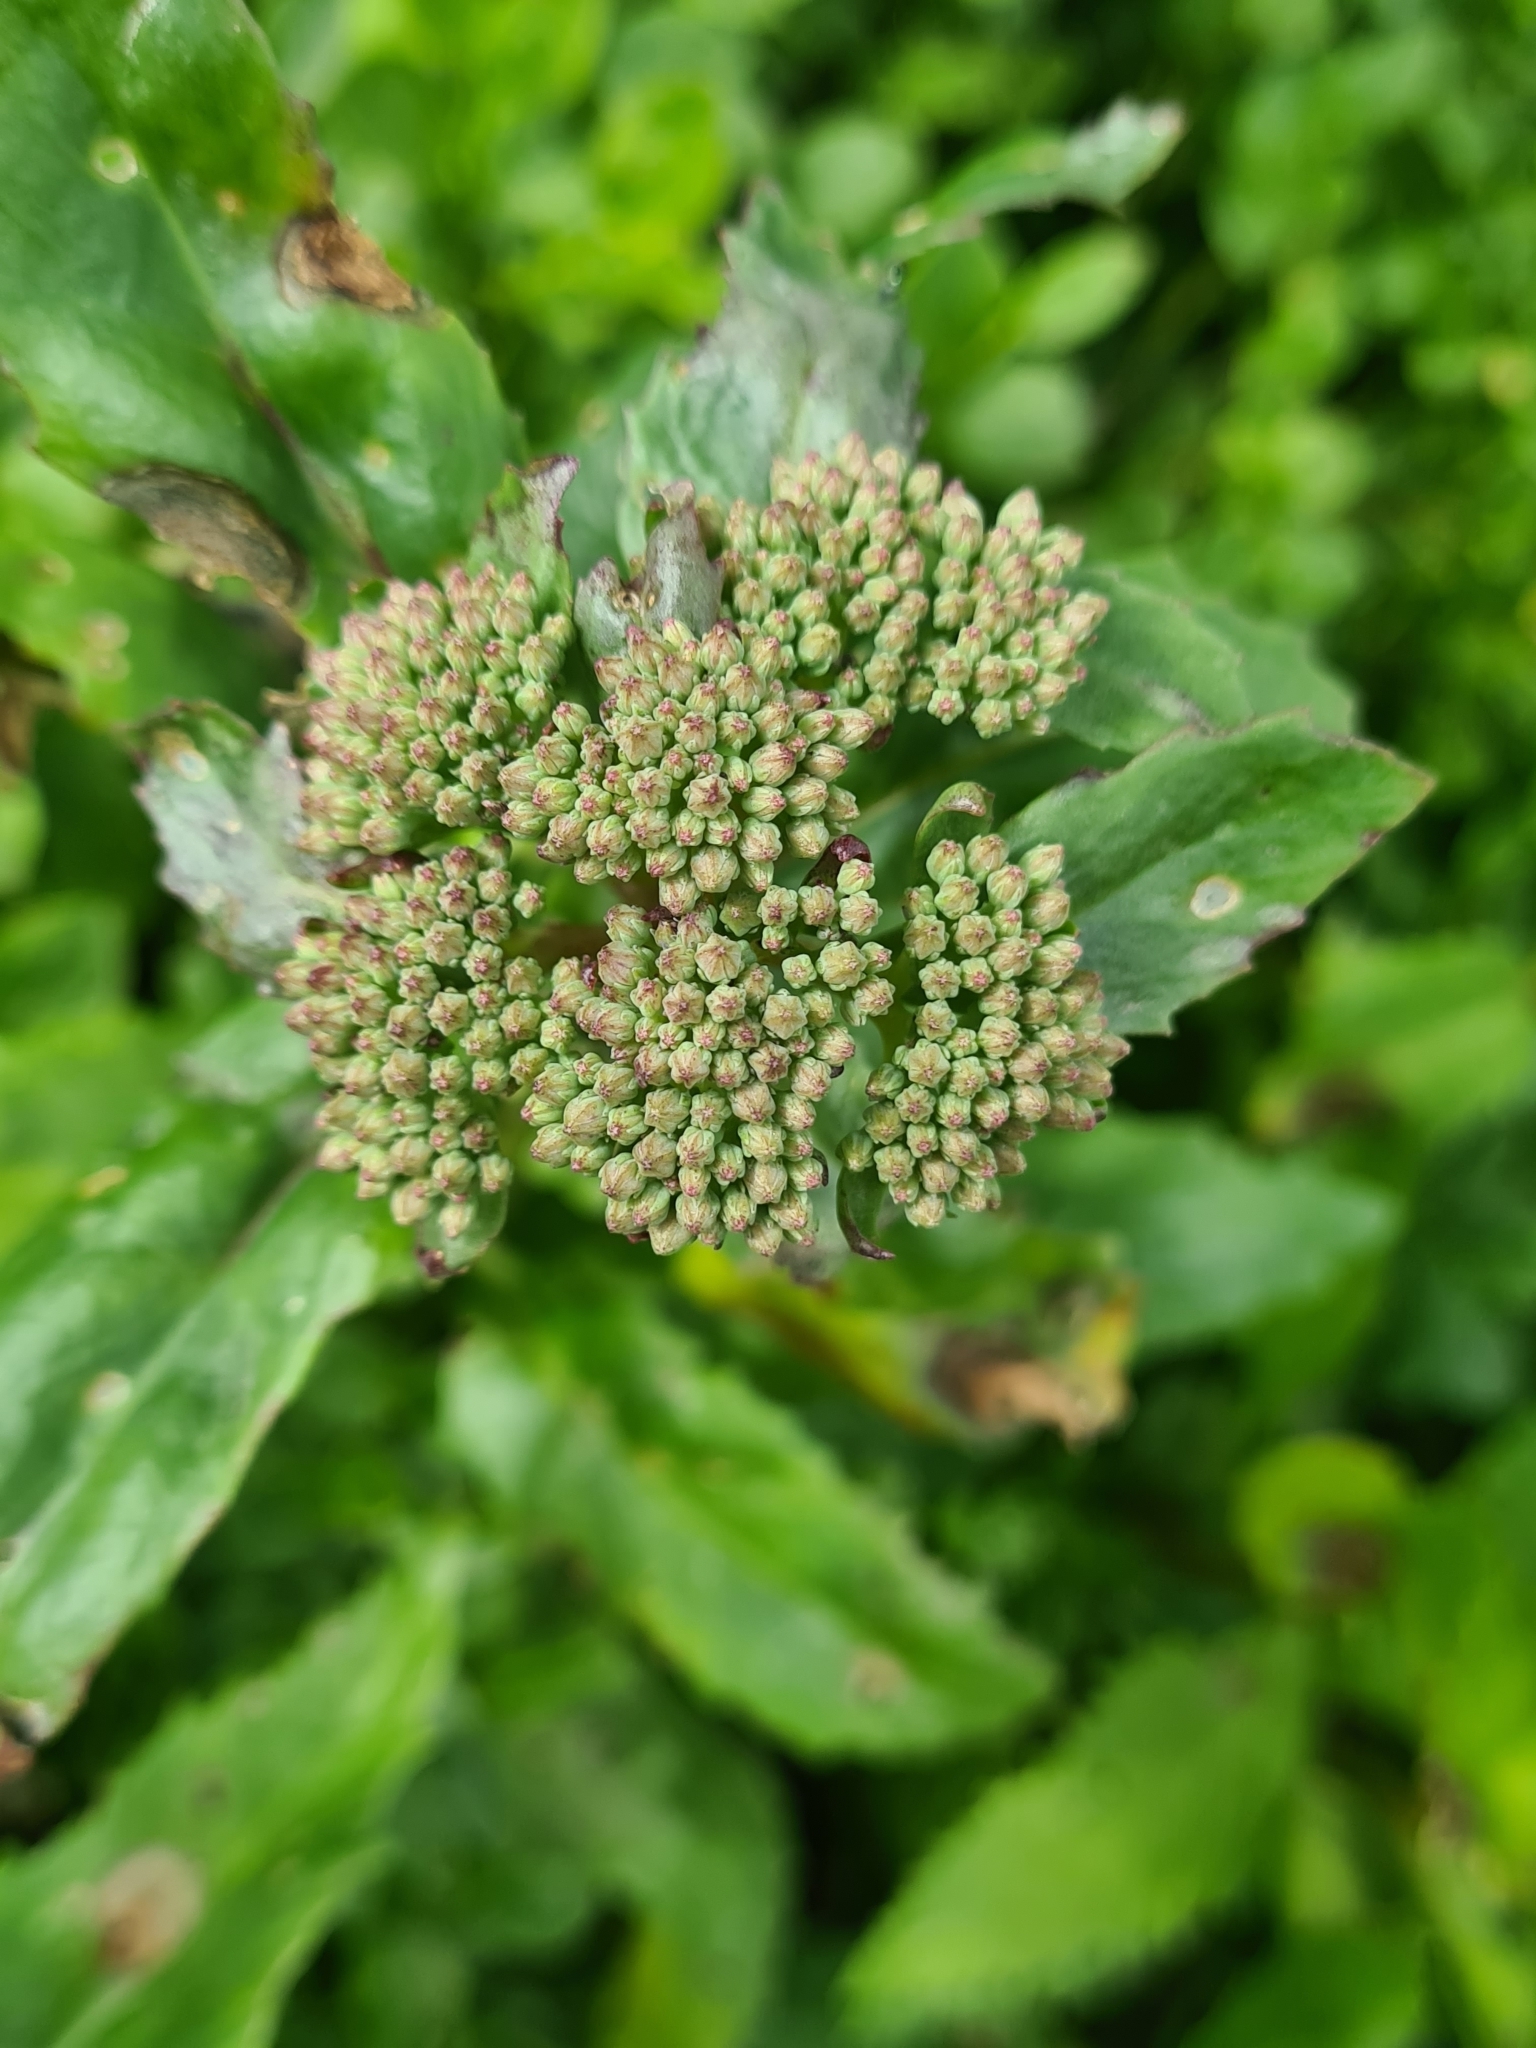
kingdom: Plantae
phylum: Tracheophyta
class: Magnoliopsida
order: Saxifragales
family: Crassulaceae
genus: Hylotelephium
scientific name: Hylotelephium vulgare
